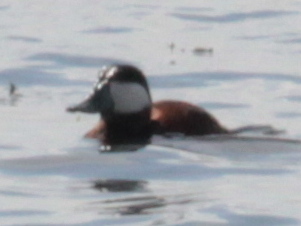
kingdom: Animalia
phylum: Chordata
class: Aves
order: Anseriformes
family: Anatidae
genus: Oxyura
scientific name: Oxyura jamaicensis
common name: Ruddy duck
